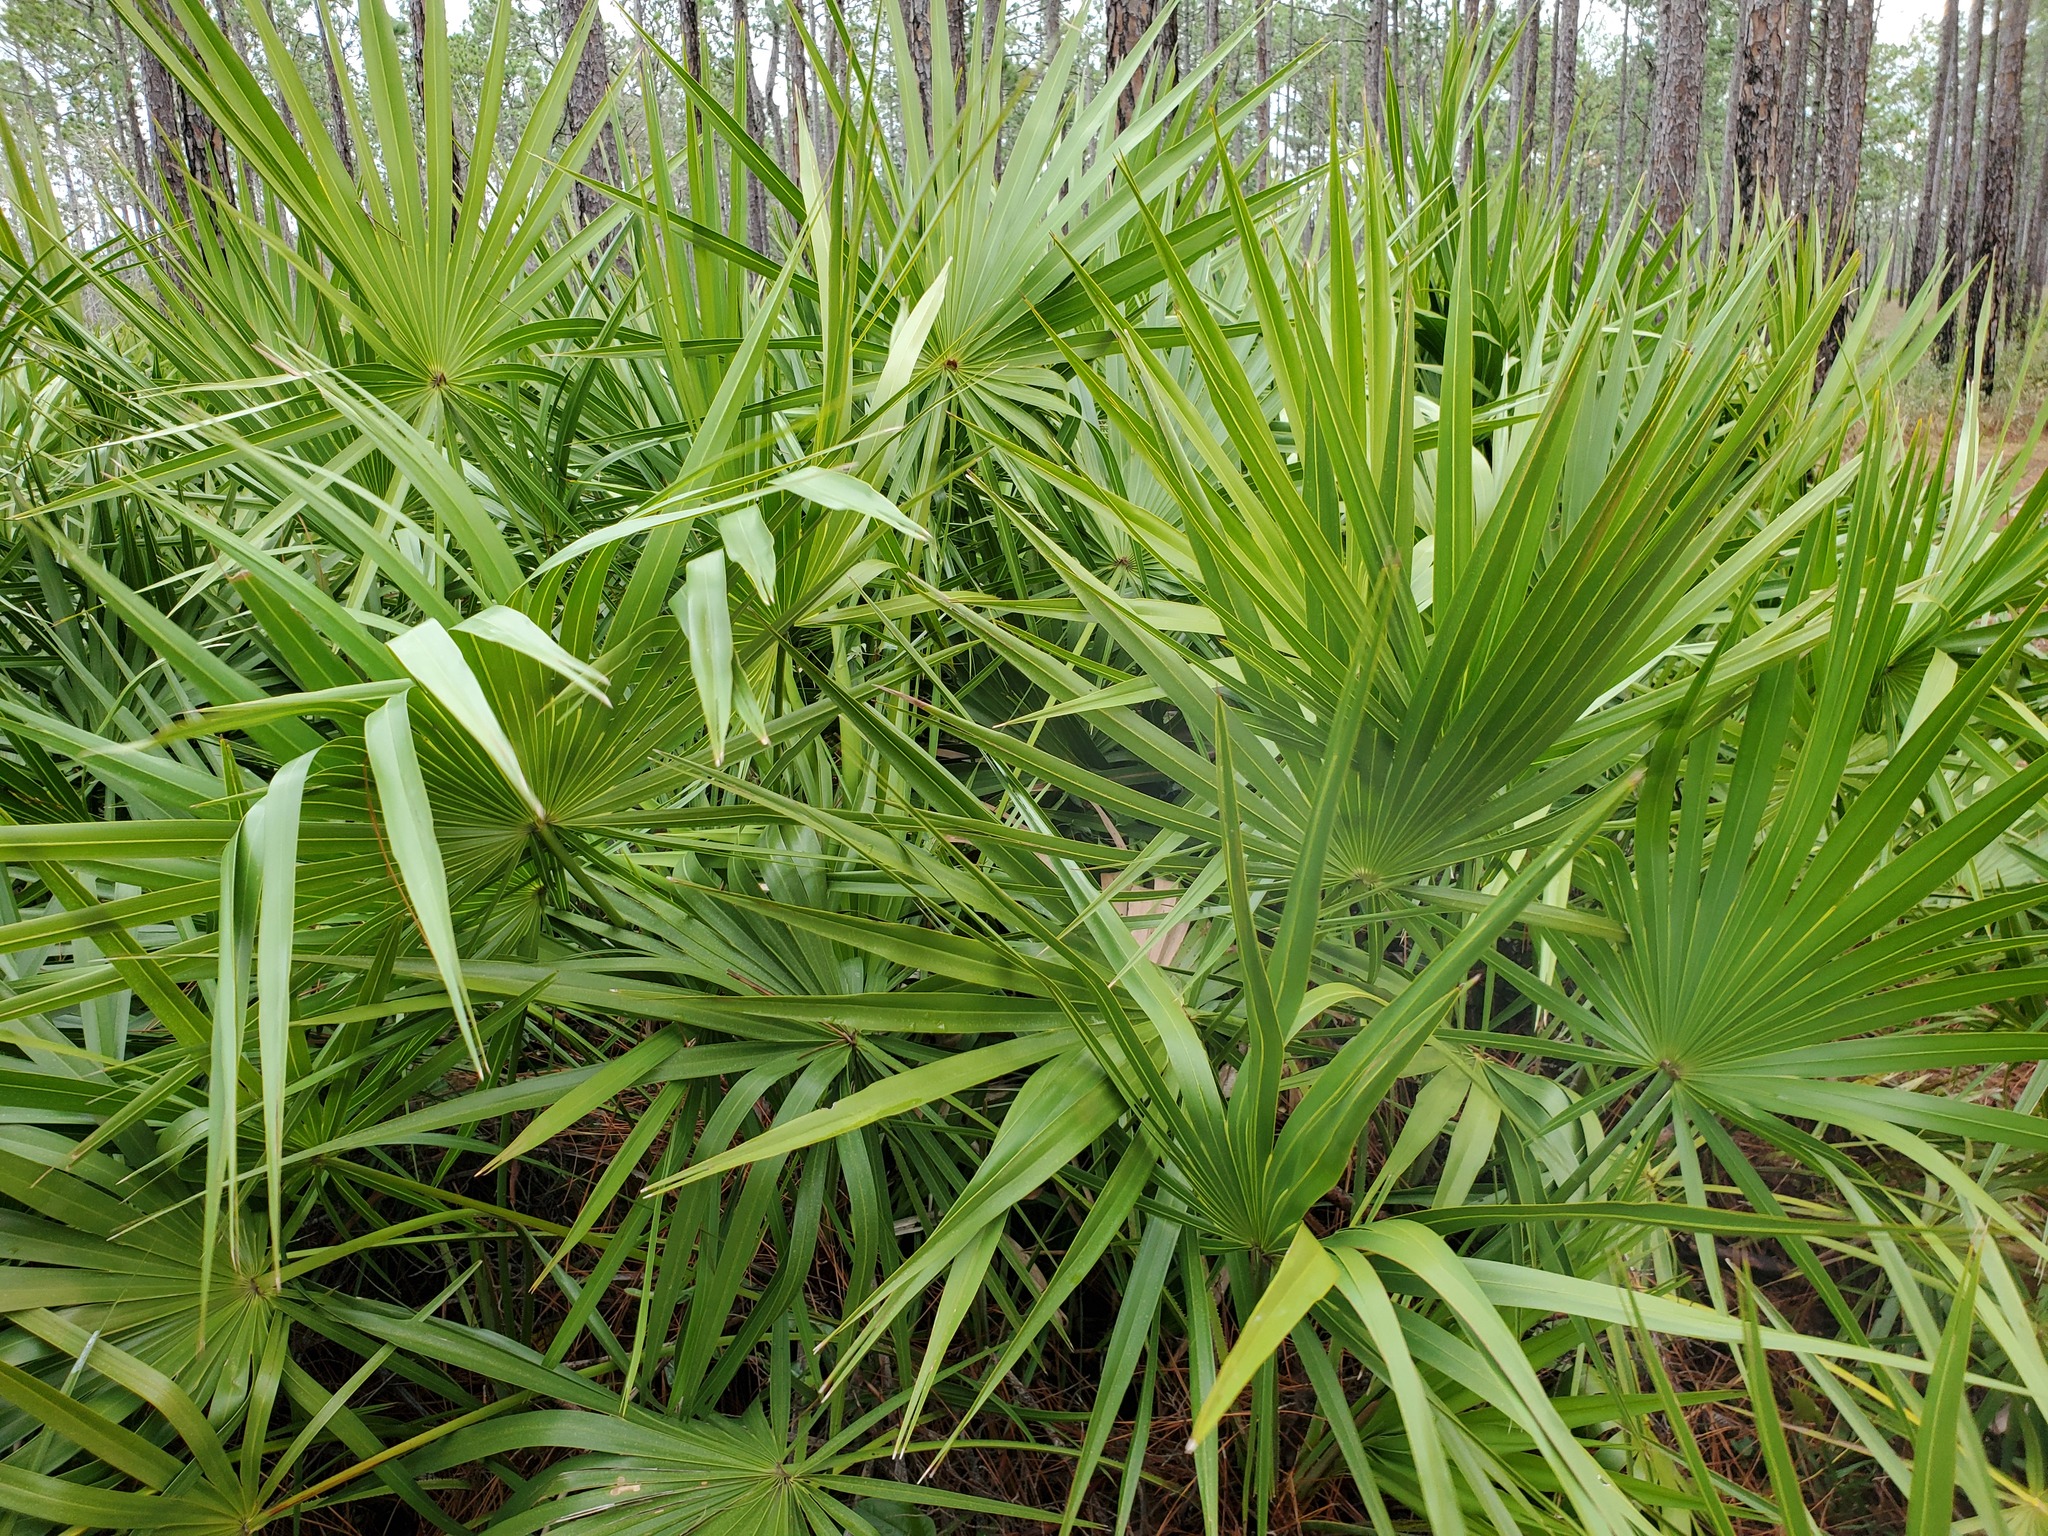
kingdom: Plantae
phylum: Tracheophyta
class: Liliopsida
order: Arecales
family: Arecaceae
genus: Serenoa
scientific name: Serenoa repens
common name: Saw-palmetto
